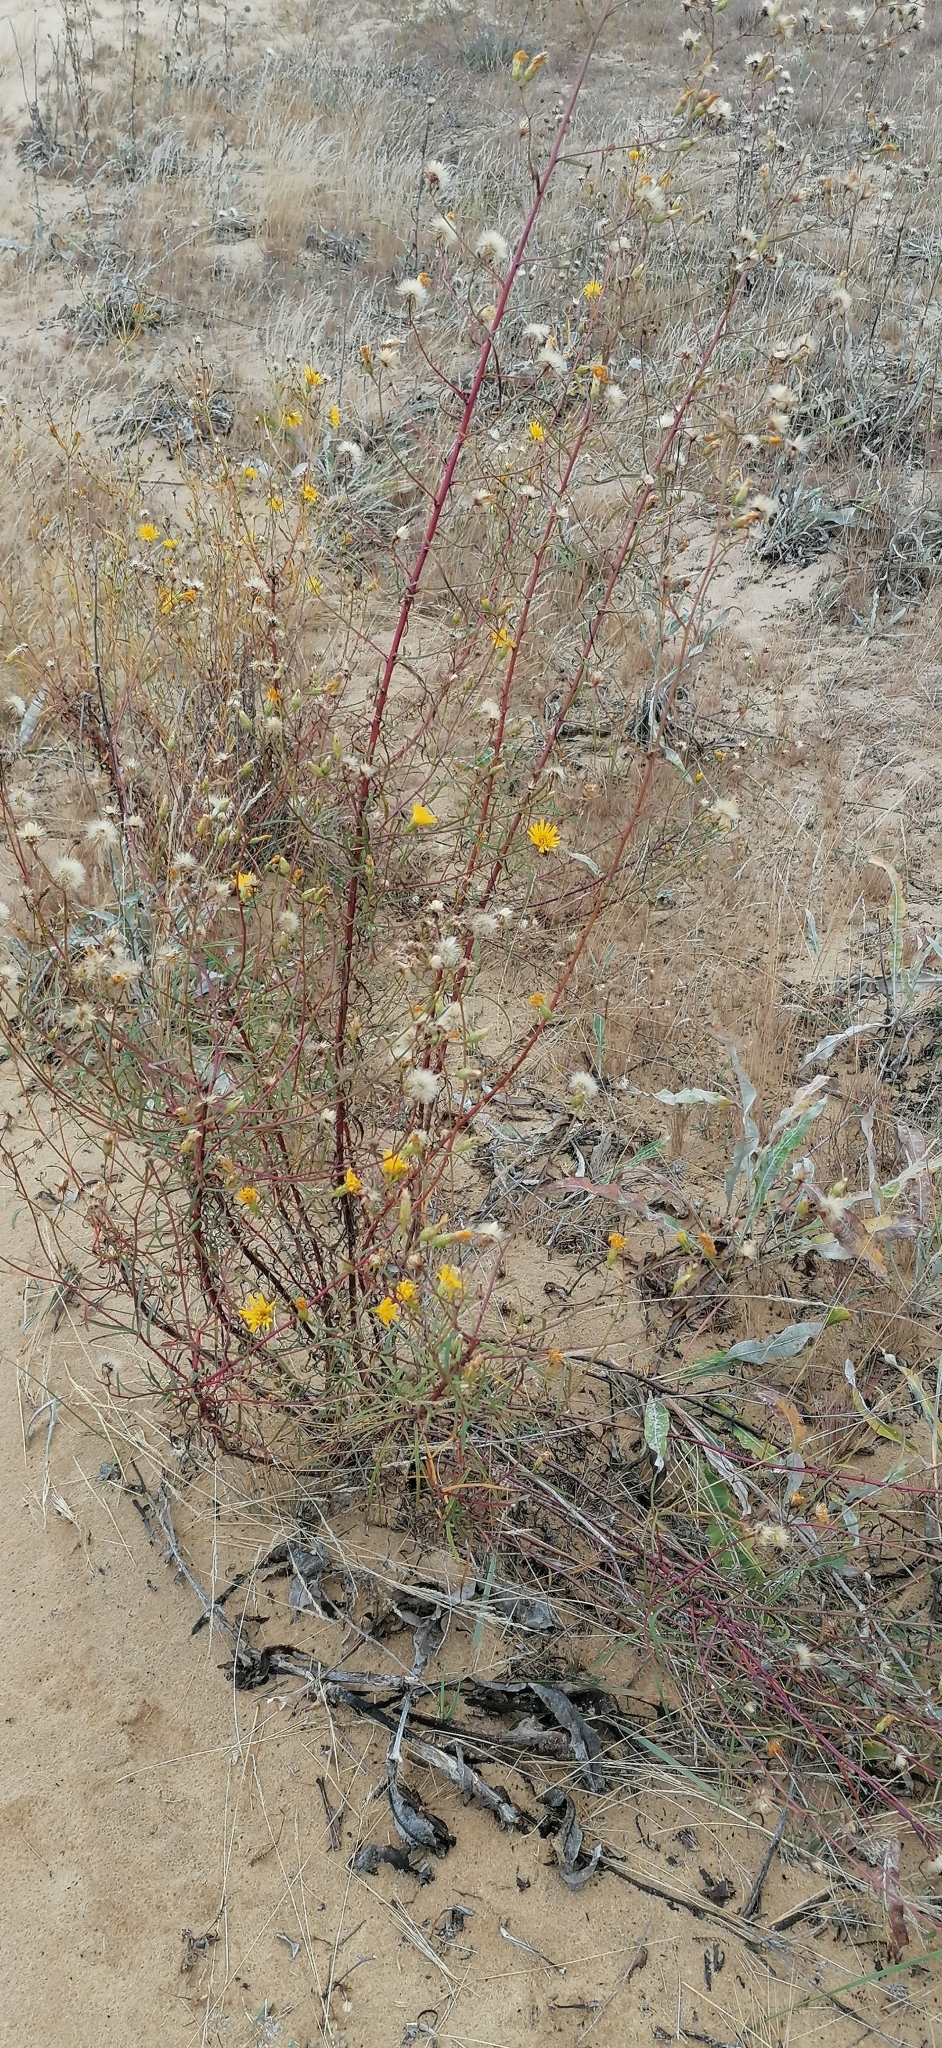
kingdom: Plantae
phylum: Tracheophyta
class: Magnoliopsida
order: Asterales
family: Asteraceae
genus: Tragopogon
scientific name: Tragopogon borystenicus
